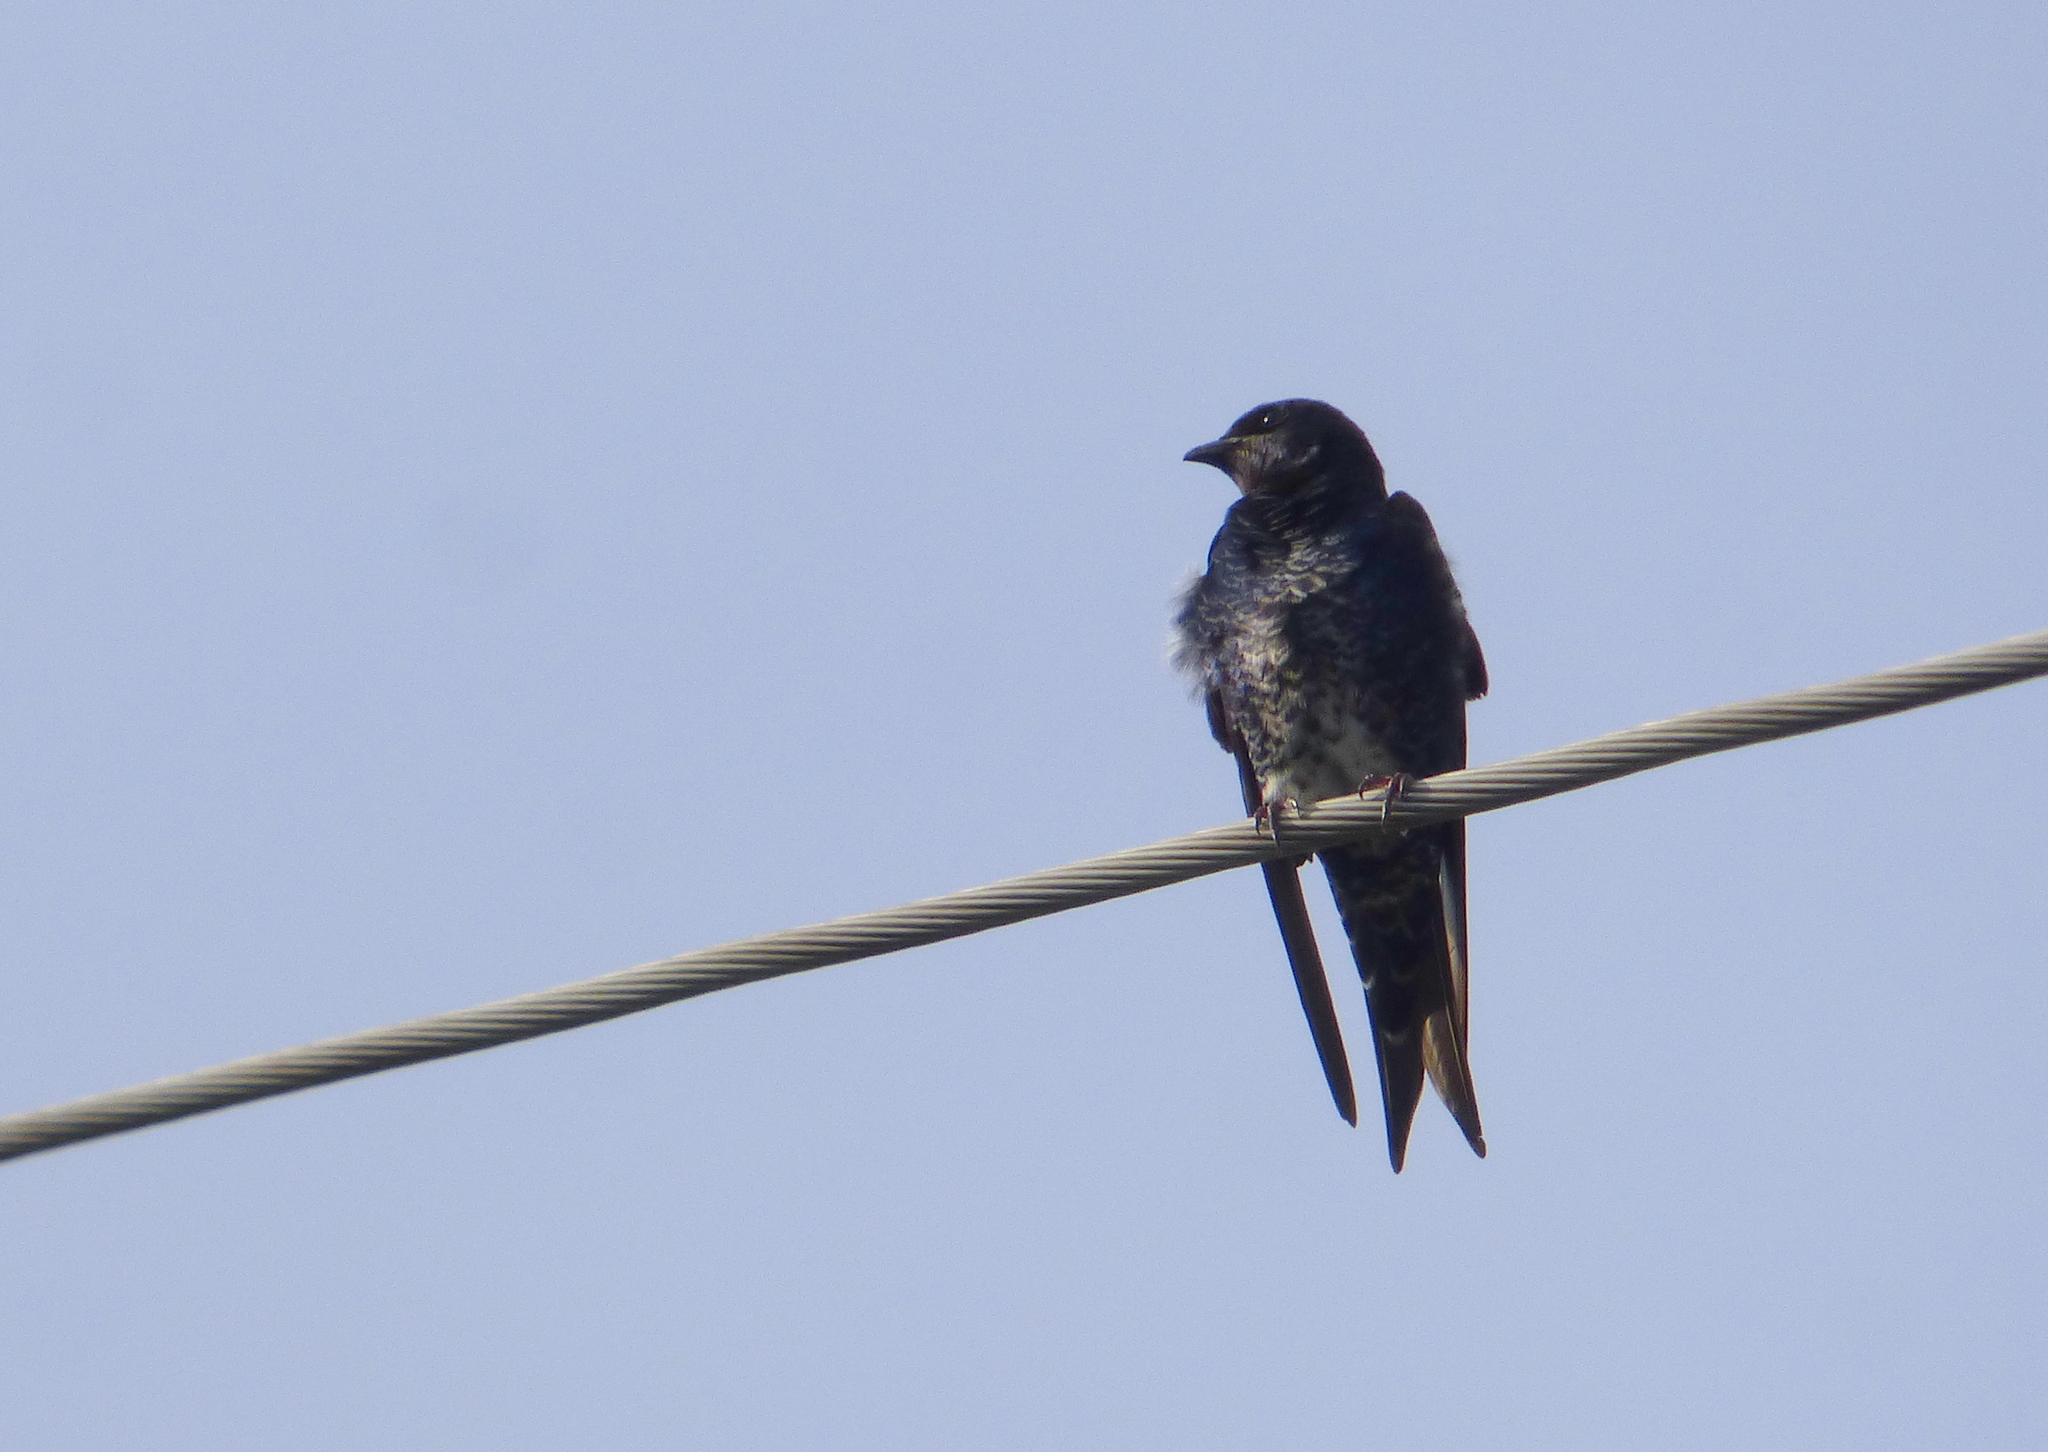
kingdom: Animalia
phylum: Chordata
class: Aves
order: Passeriformes
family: Hirundinidae
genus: Progne
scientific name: Progne elegans
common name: Southern martin
